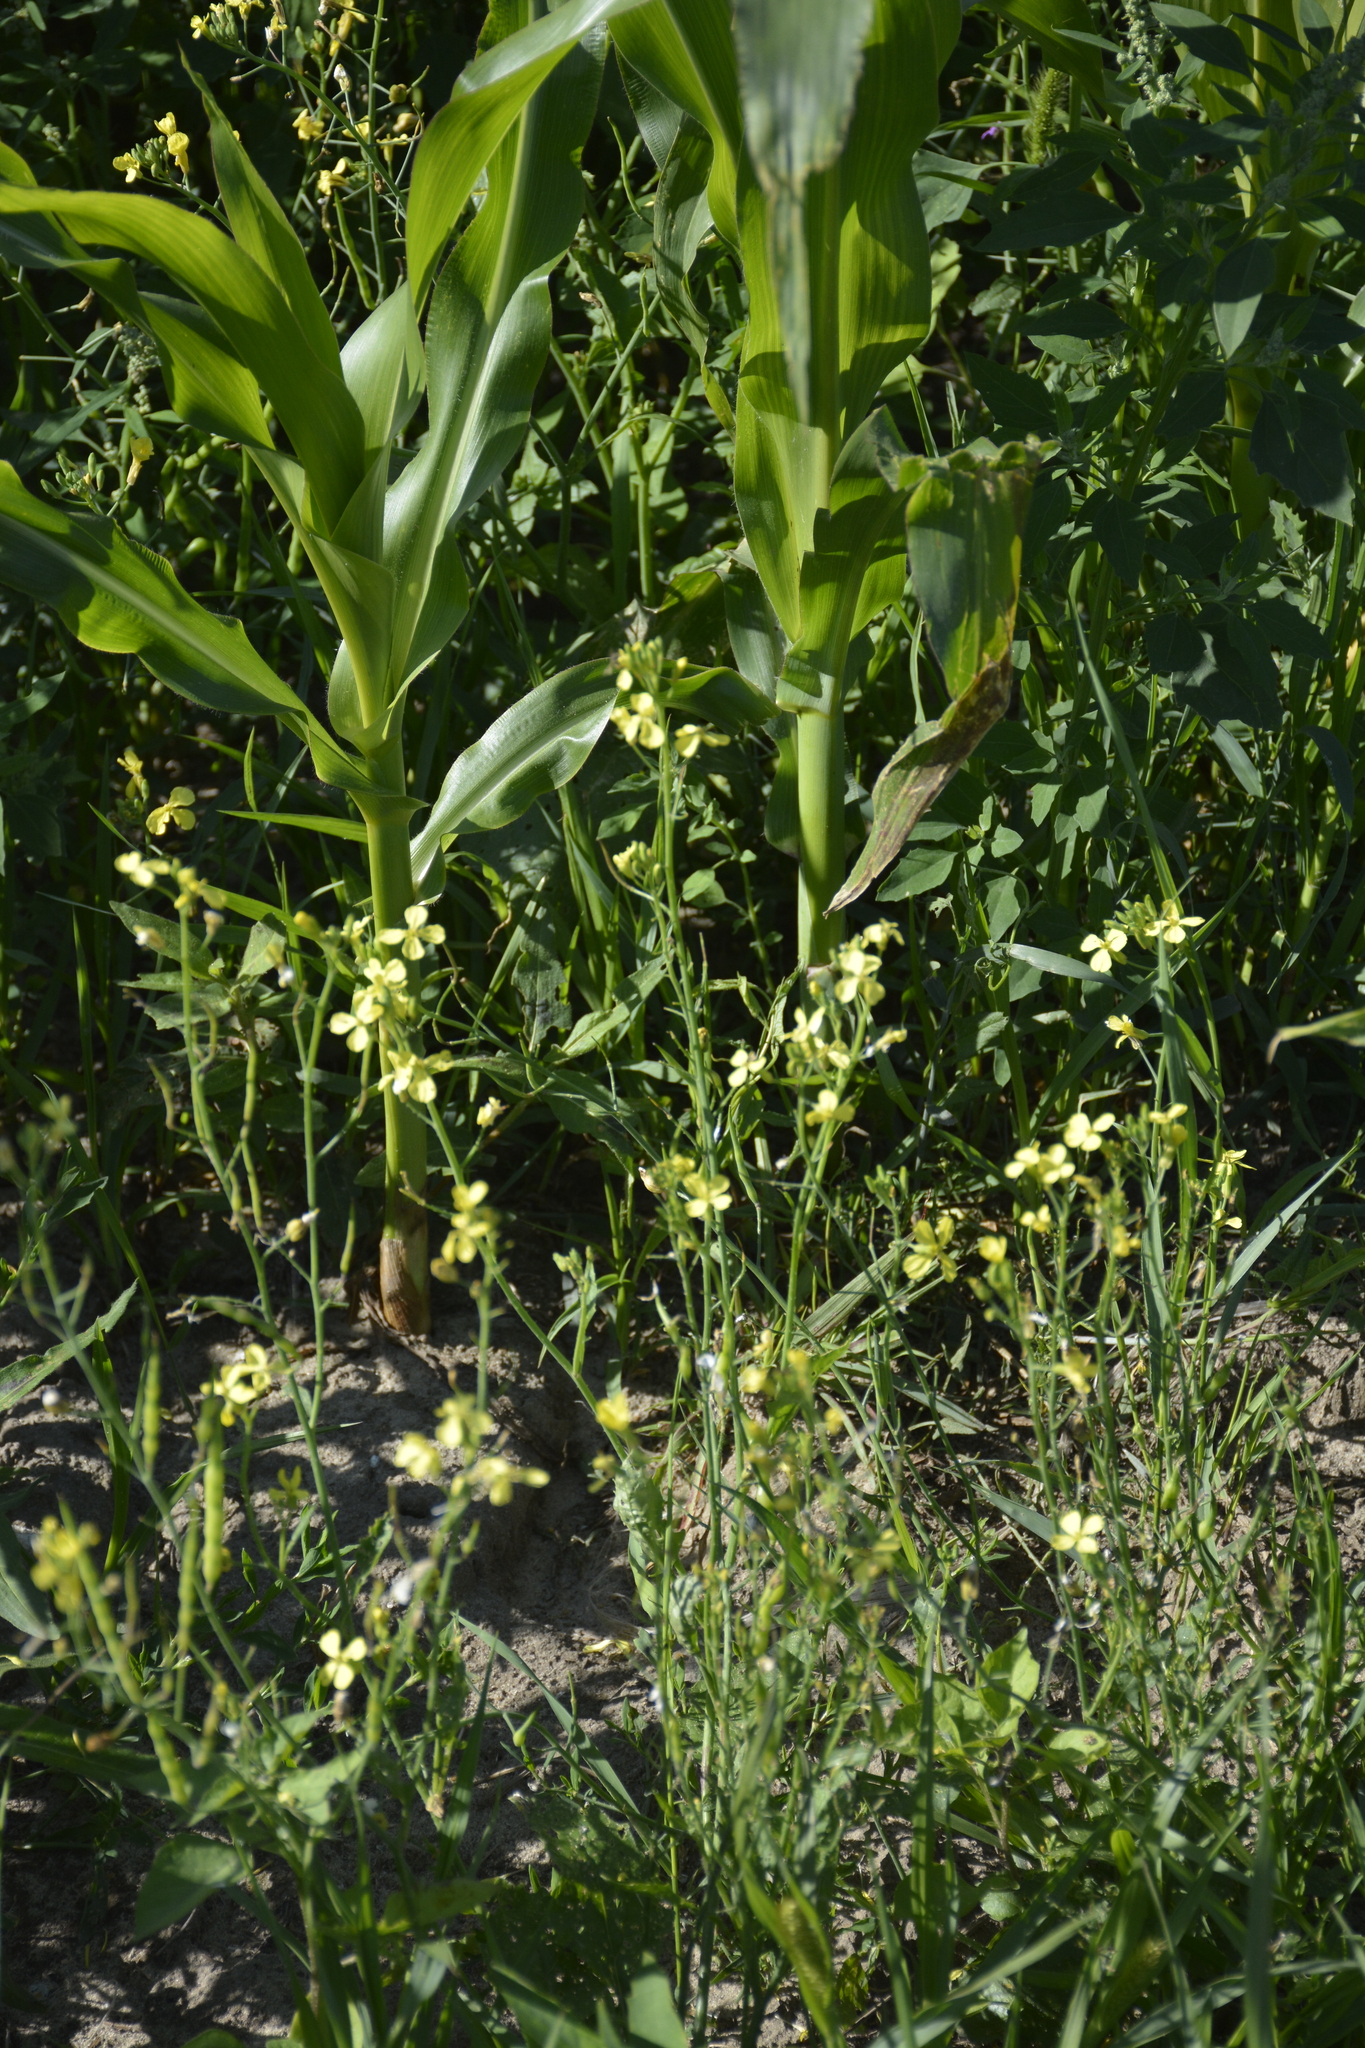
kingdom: Plantae
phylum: Tracheophyta
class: Magnoliopsida
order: Brassicales
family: Brassicaceae
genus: Raphanus
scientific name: Raphanus raphanistrum
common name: Wild radish
